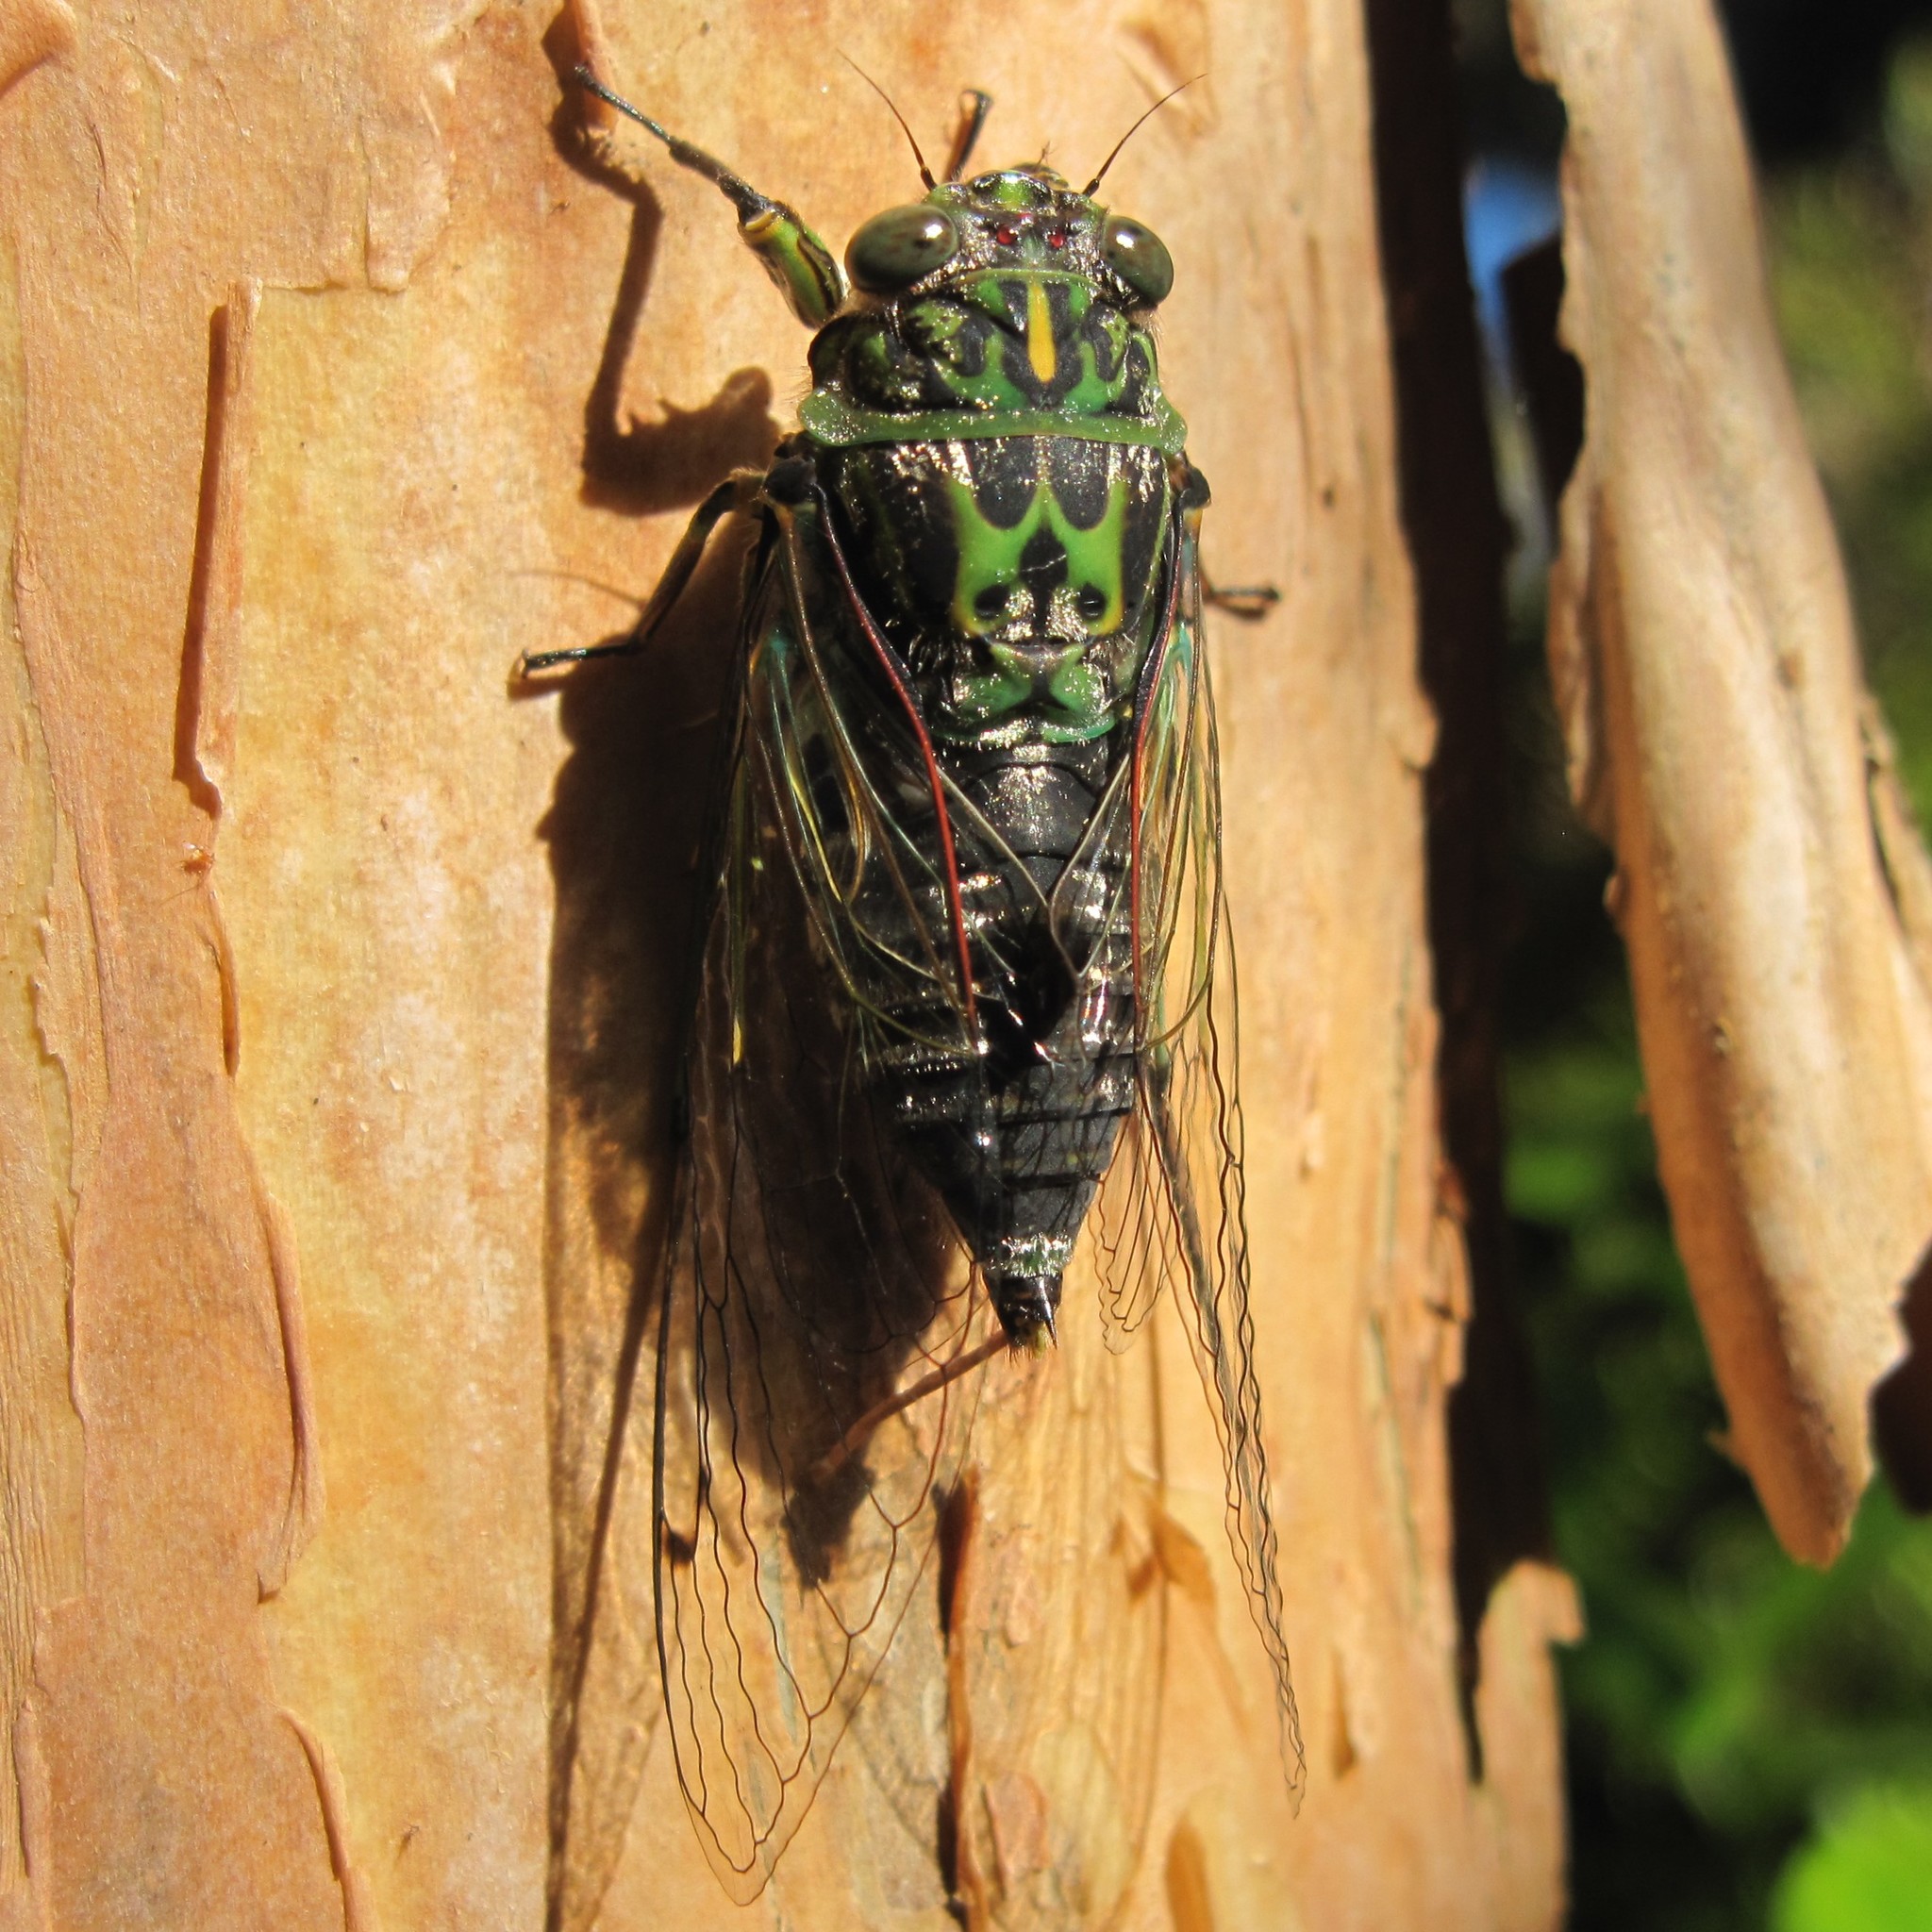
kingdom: Animalia
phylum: Arthropoda
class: Insecta
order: Hemiptera
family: Cicadidae
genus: Amphipsalta
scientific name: Amphipsalta zelandica
